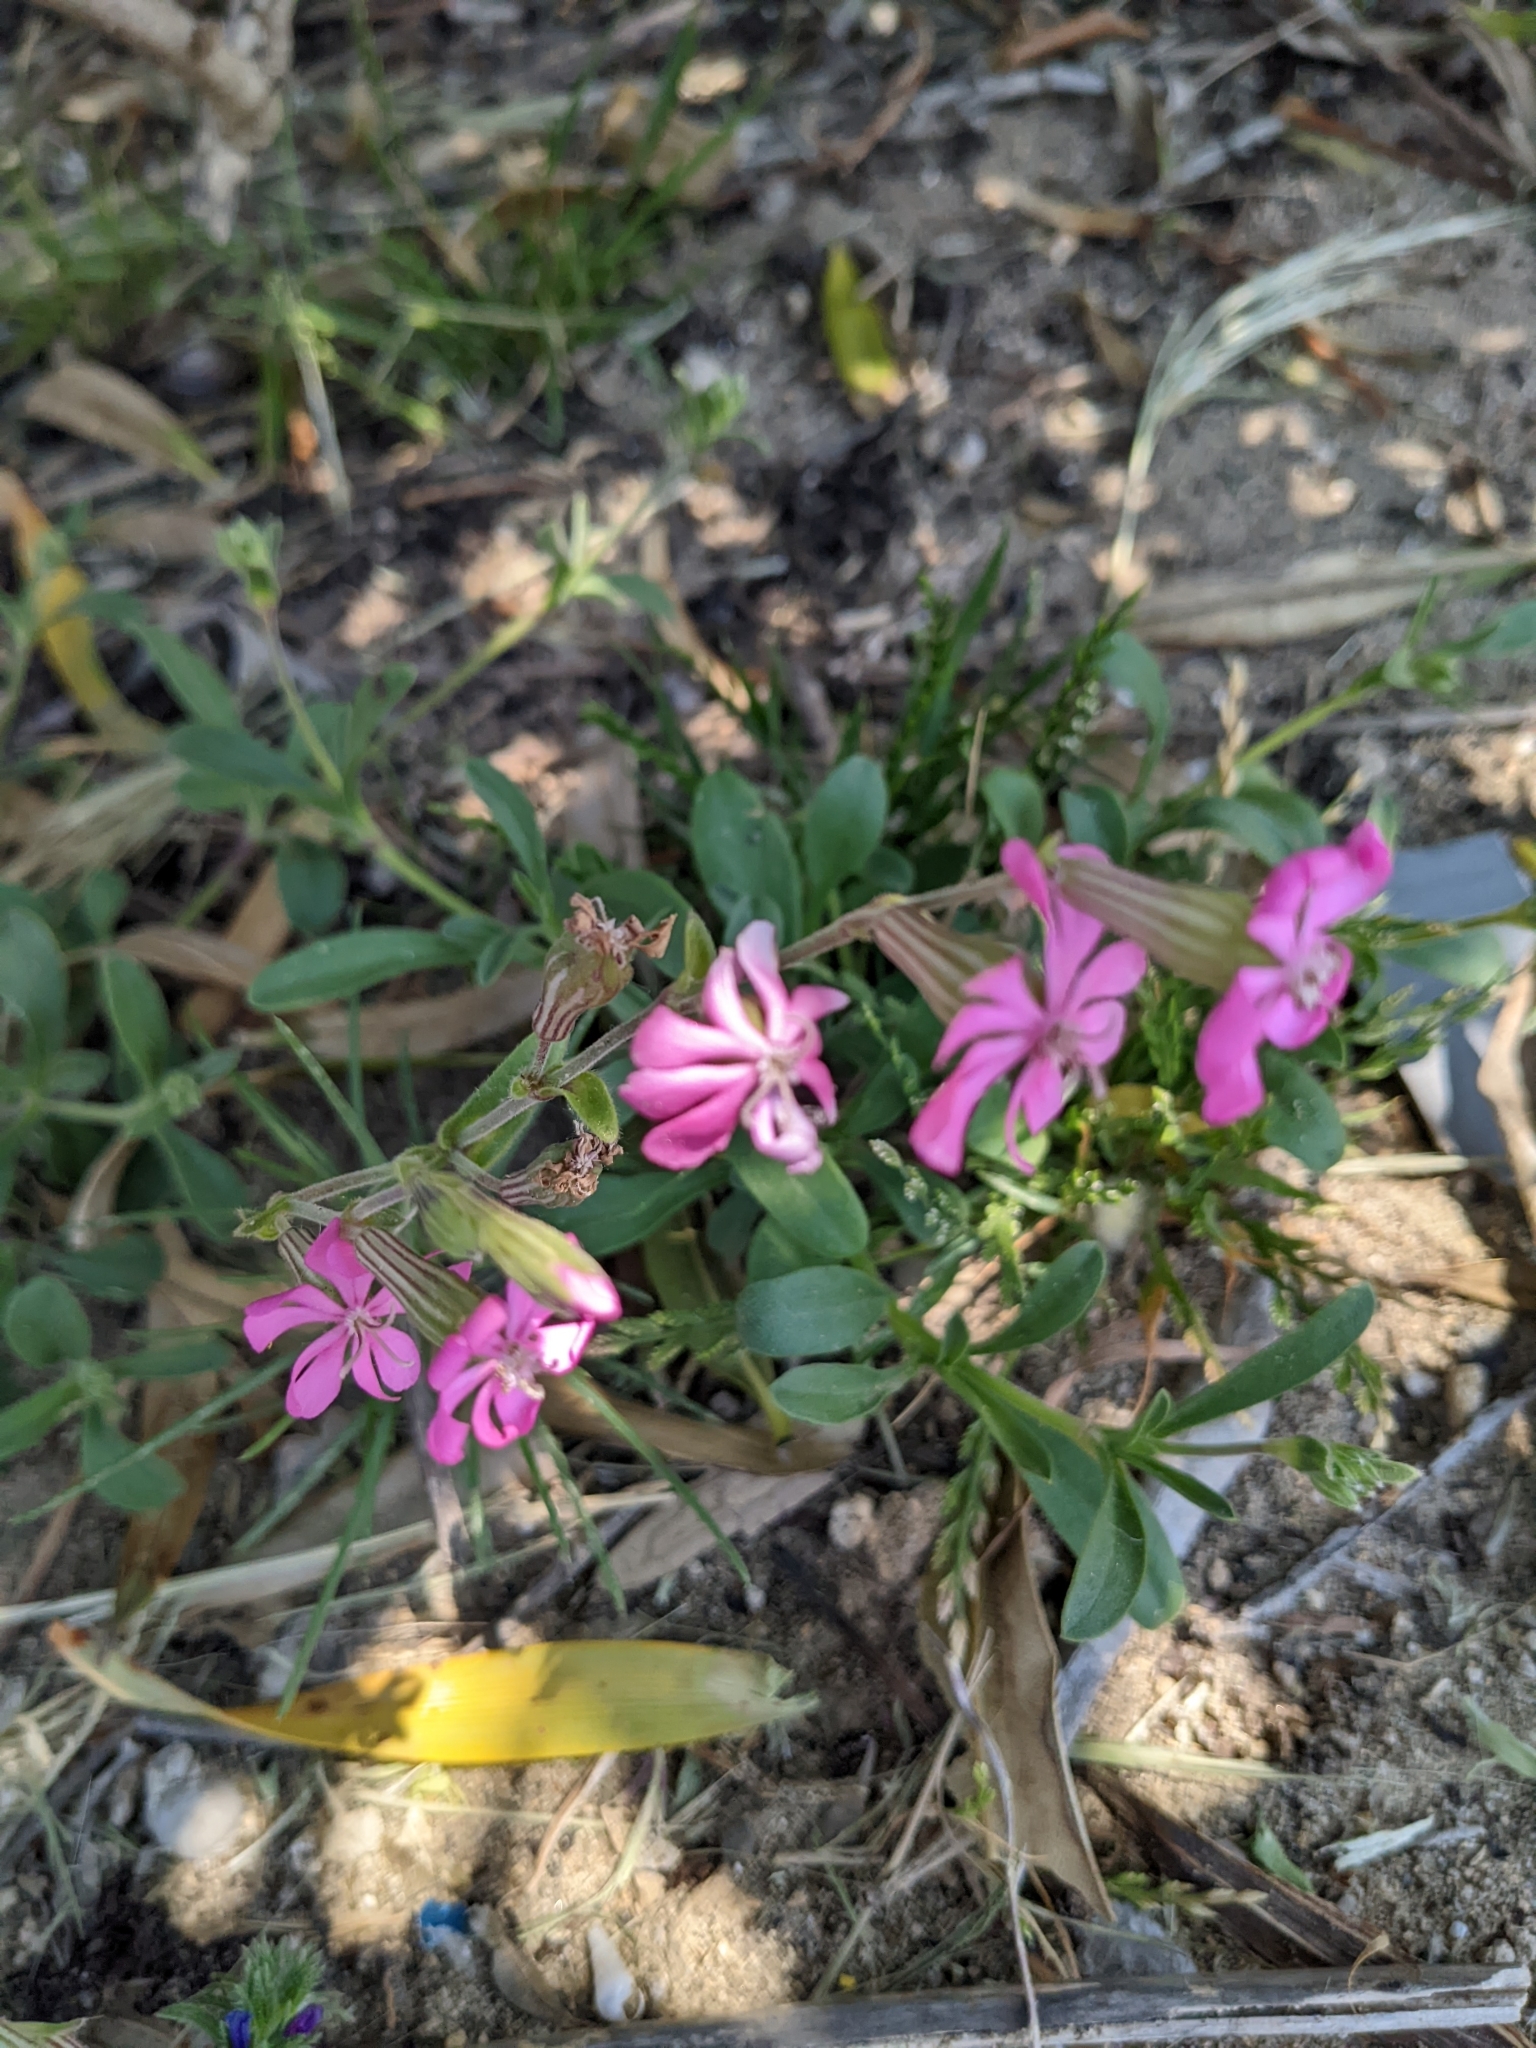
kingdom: Plantae
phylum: Tracheophyta
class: Magnoliopsida
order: Caryophyllales
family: Caryophyllaceae
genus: Silene
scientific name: Silene colorata
